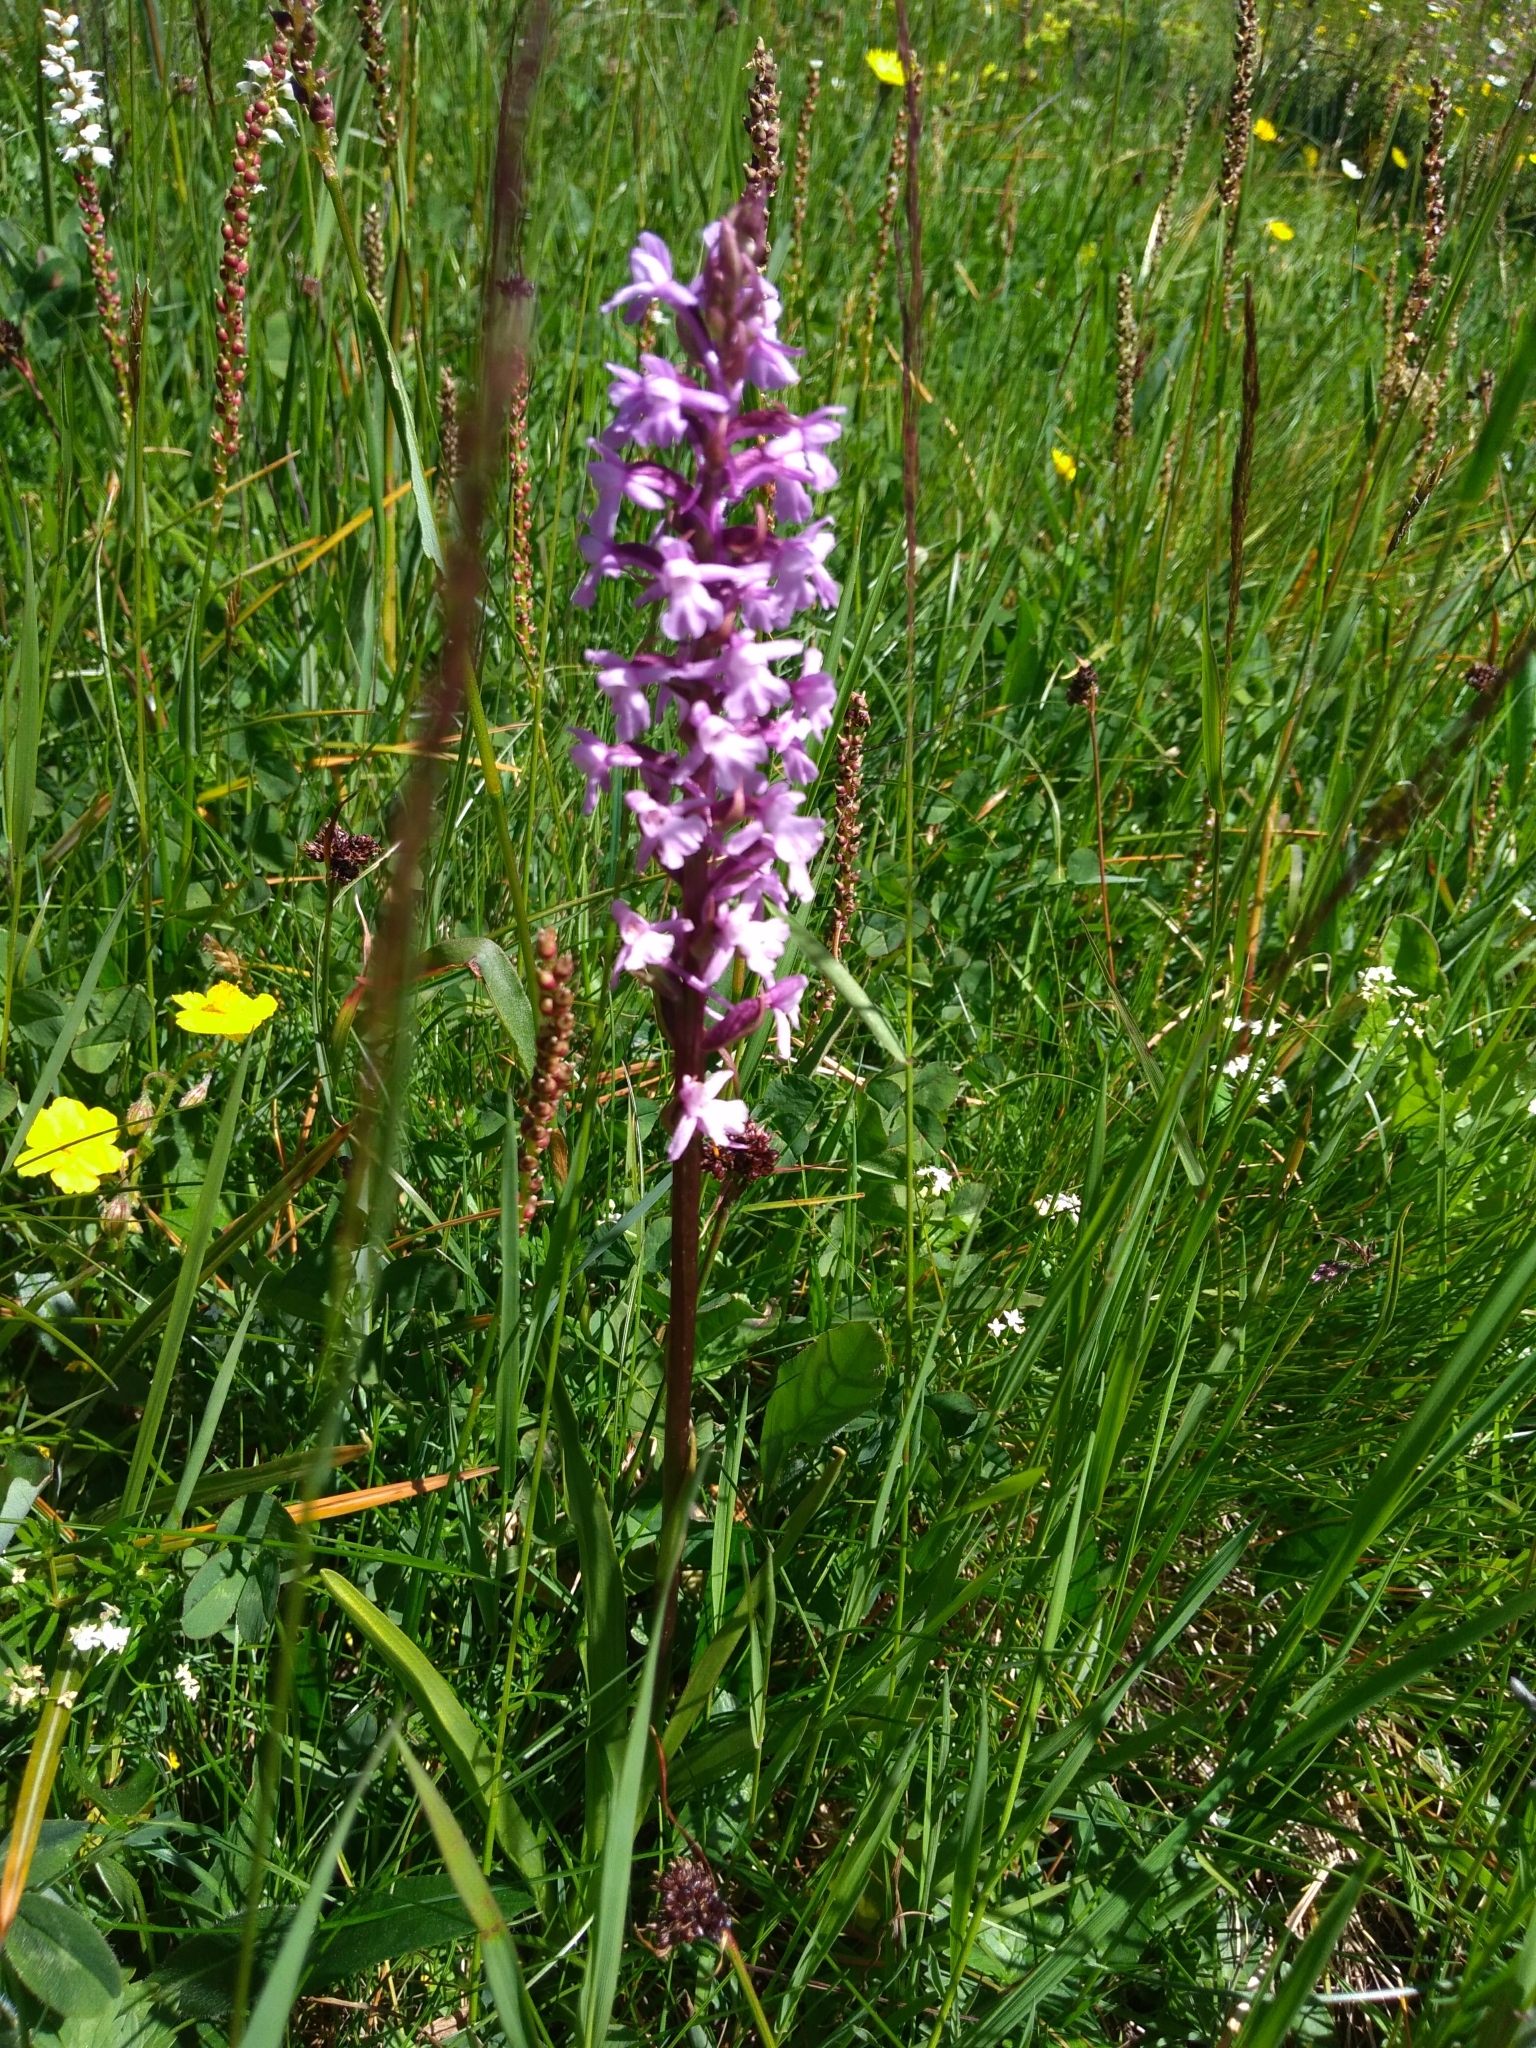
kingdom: Plantae
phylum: Tracheophyta
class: Liliopsida
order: Asparagales
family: Orchidaceae
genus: Gymnadenia
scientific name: Gymnadenia conopsea
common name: Fragrant orchid
